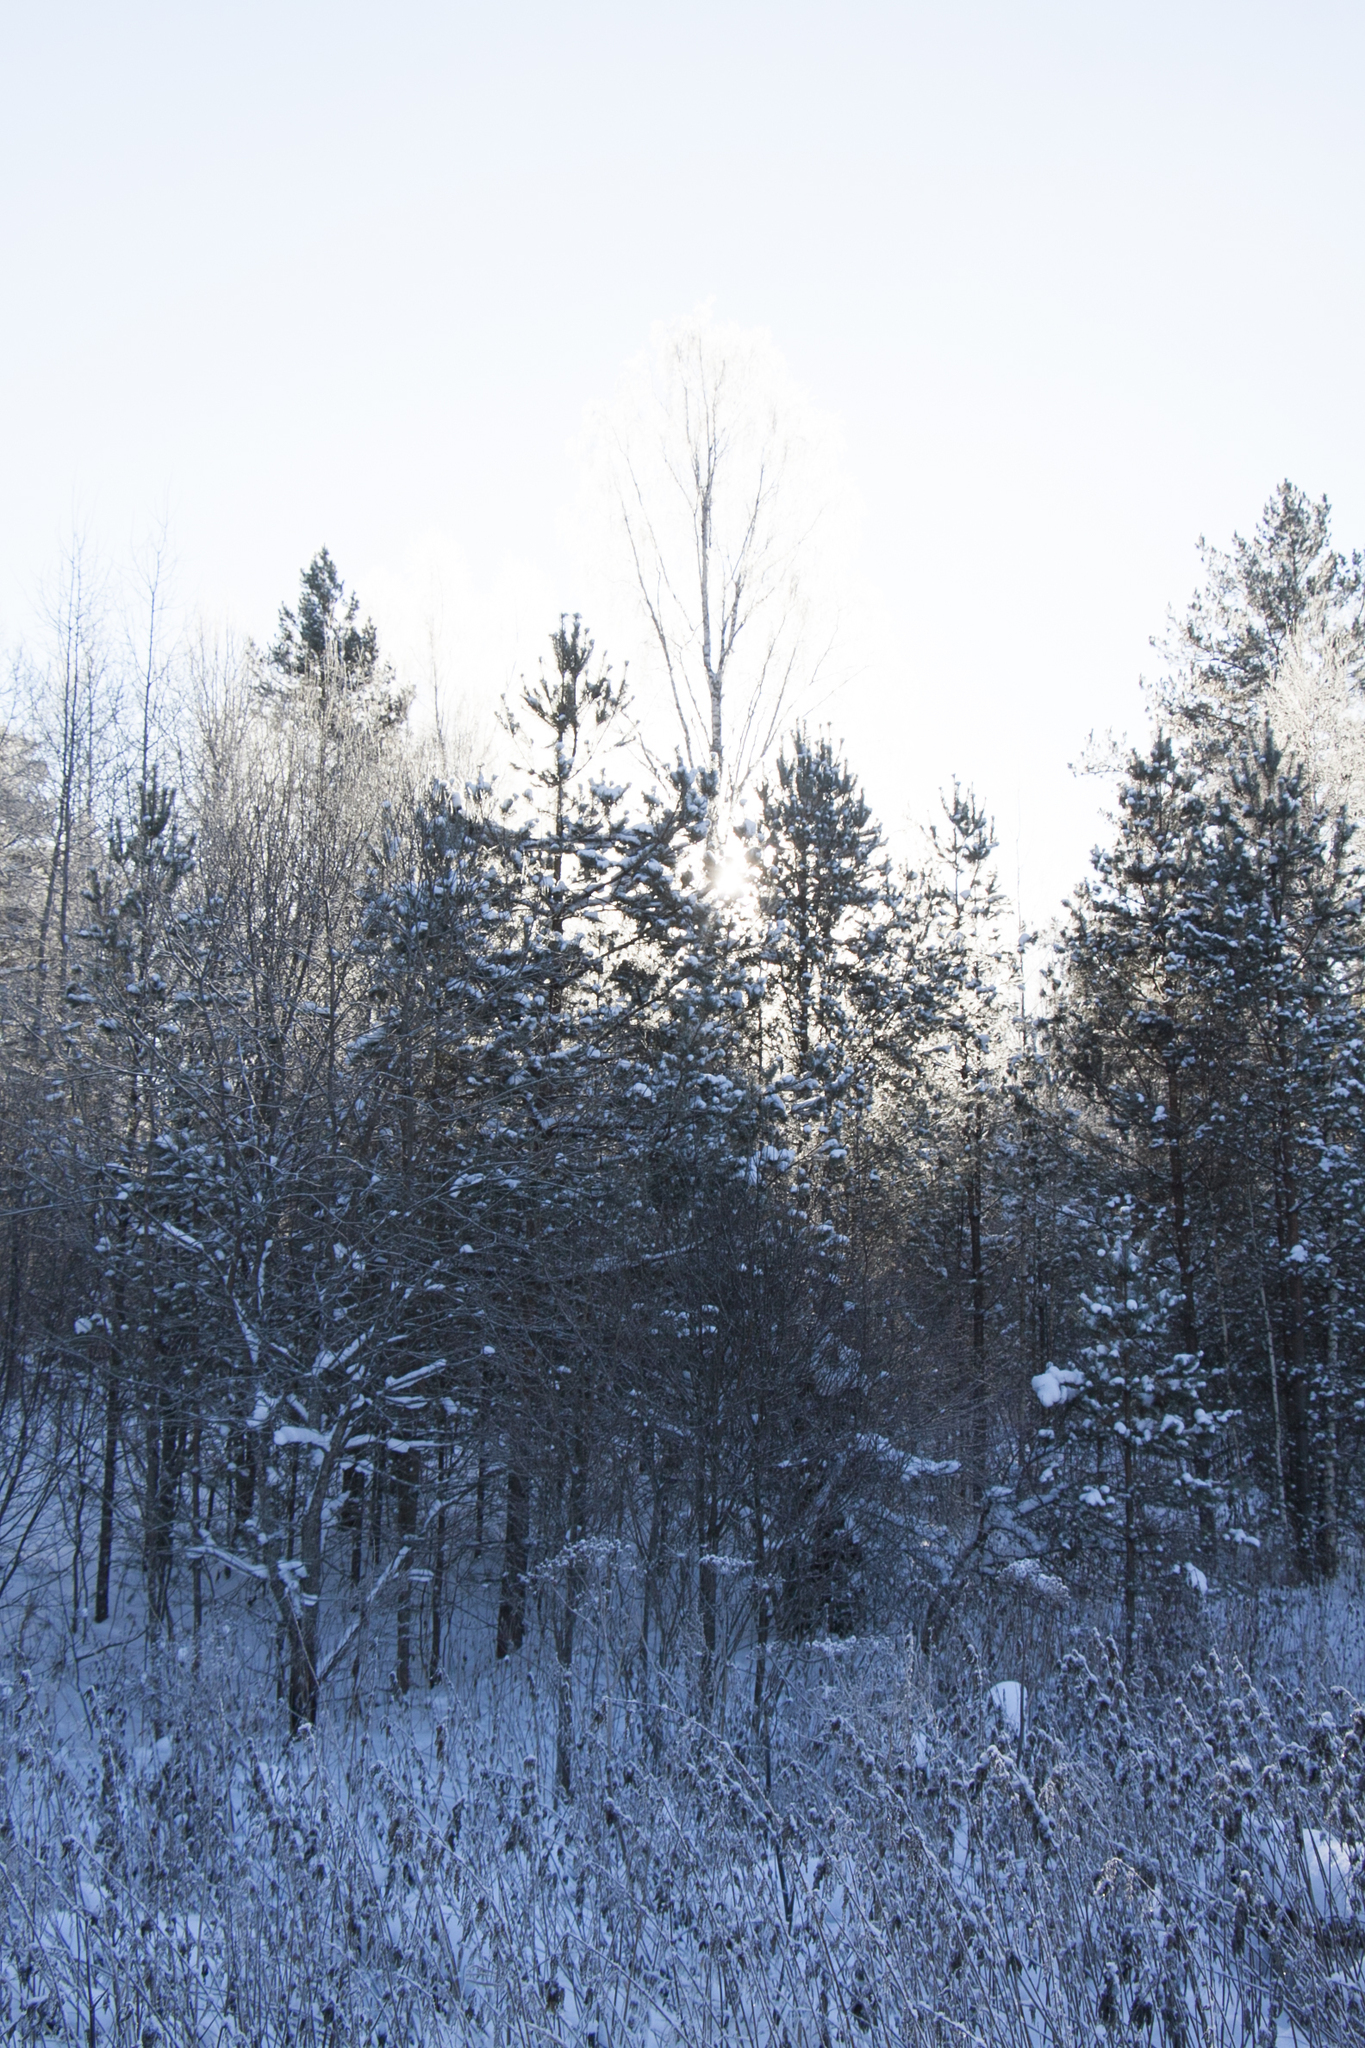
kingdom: Plantae
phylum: Tracheophyta
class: Pinopsida
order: Pinales
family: Pinaceae
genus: Pinus
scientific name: Pinus sylvestris
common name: Scots pine
